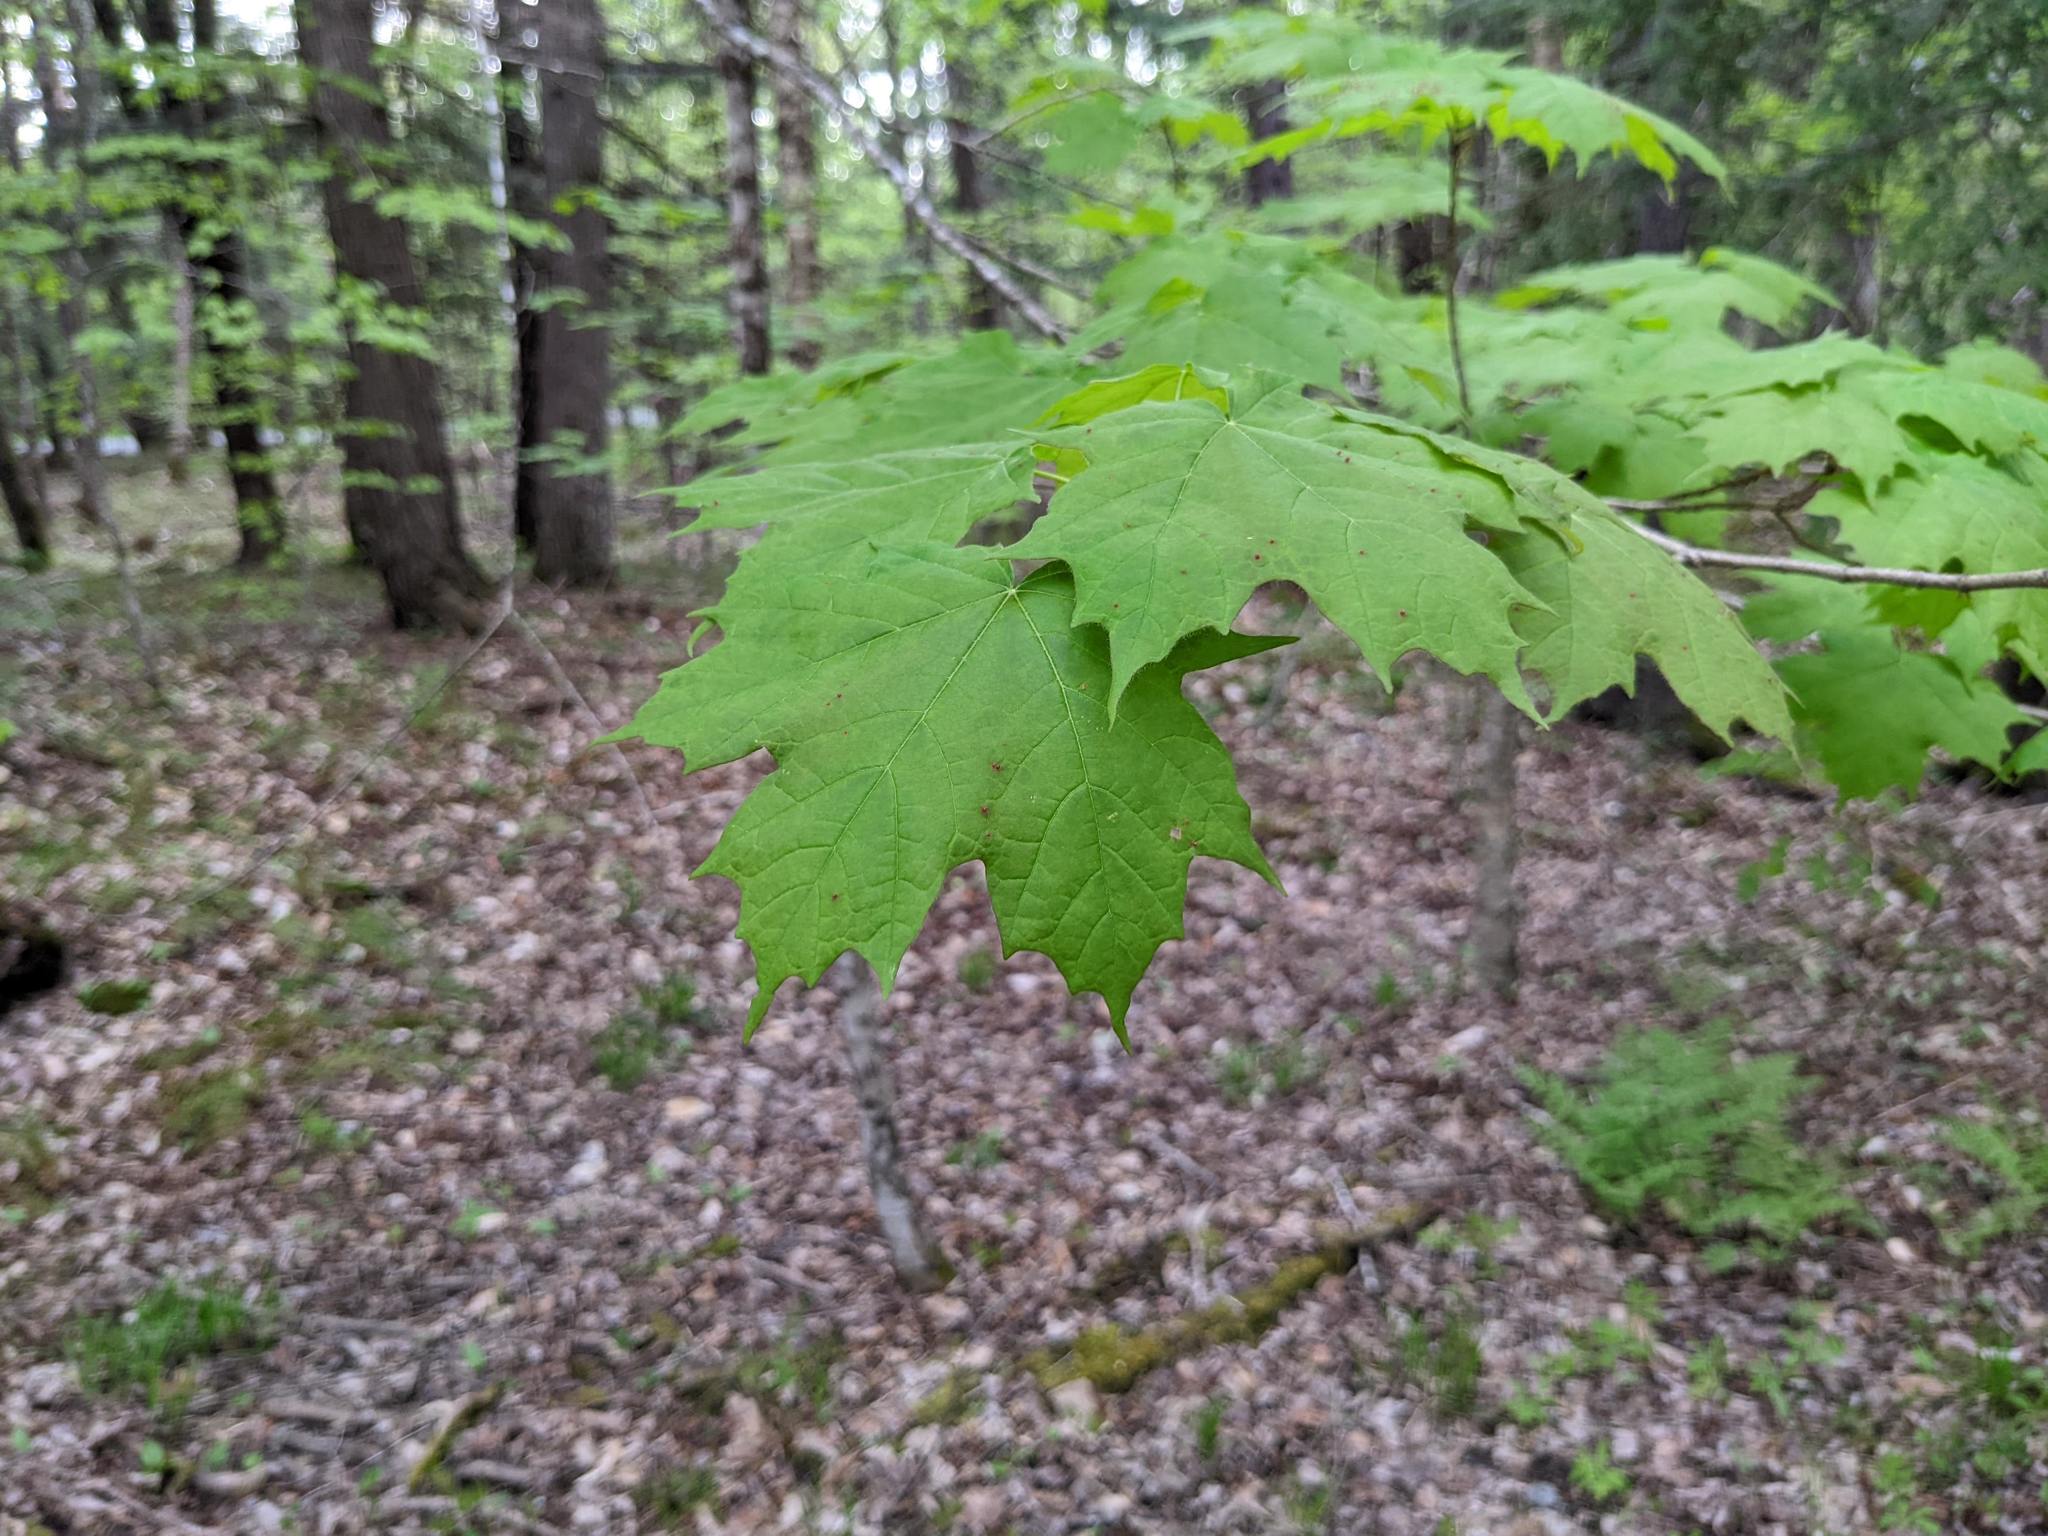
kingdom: Plantae
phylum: Tracheophyta
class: Magnoliopsida
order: Sapindales
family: Sapindaceae
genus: Acer
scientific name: Acer saccharum
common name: Sugar maple
